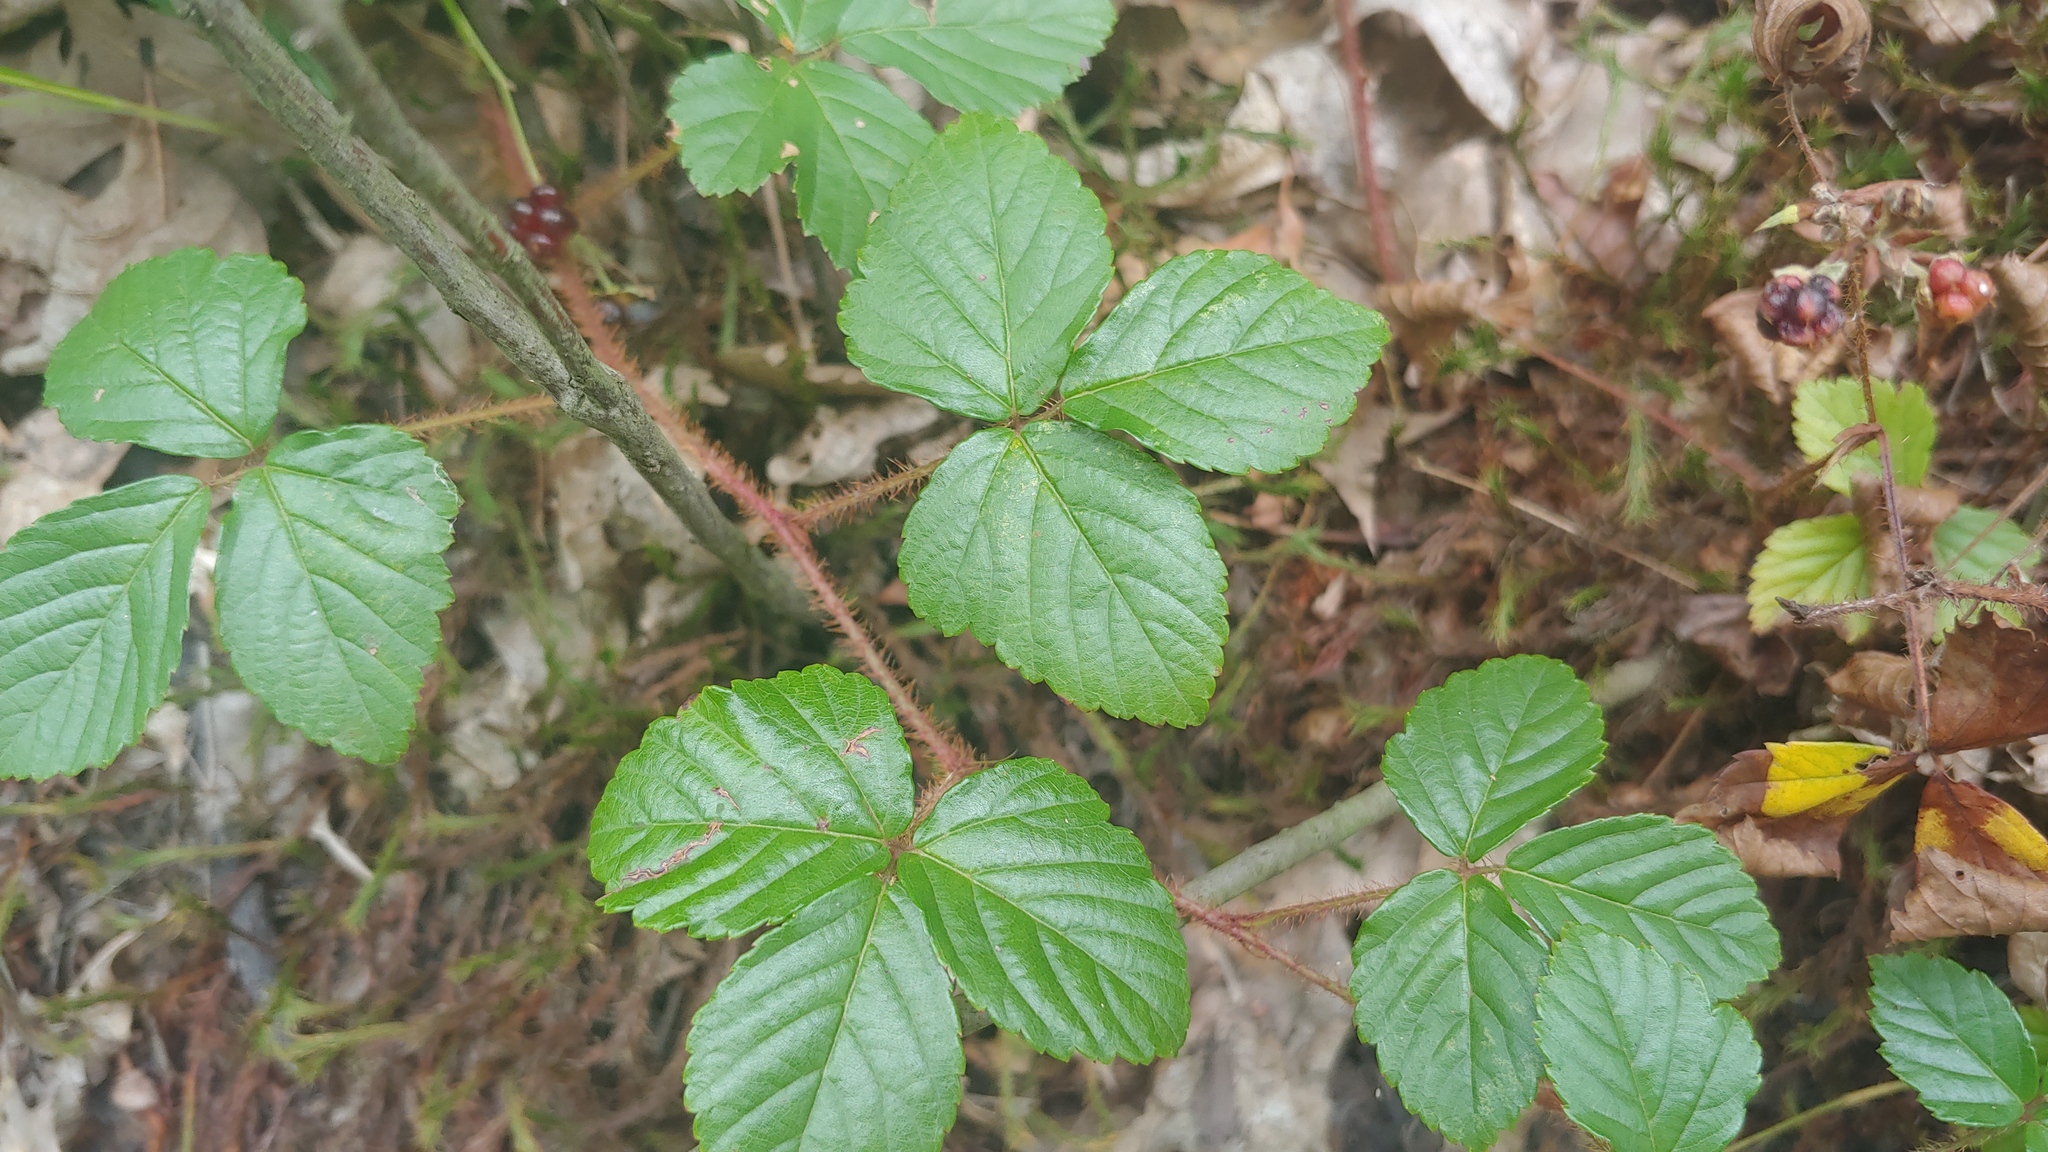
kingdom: Plantae
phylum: Tracheophyta
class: Magnoliopsida
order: Rosales
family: Rosaceae
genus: Rubus
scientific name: Rubus hispidus
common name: Running blackberry
